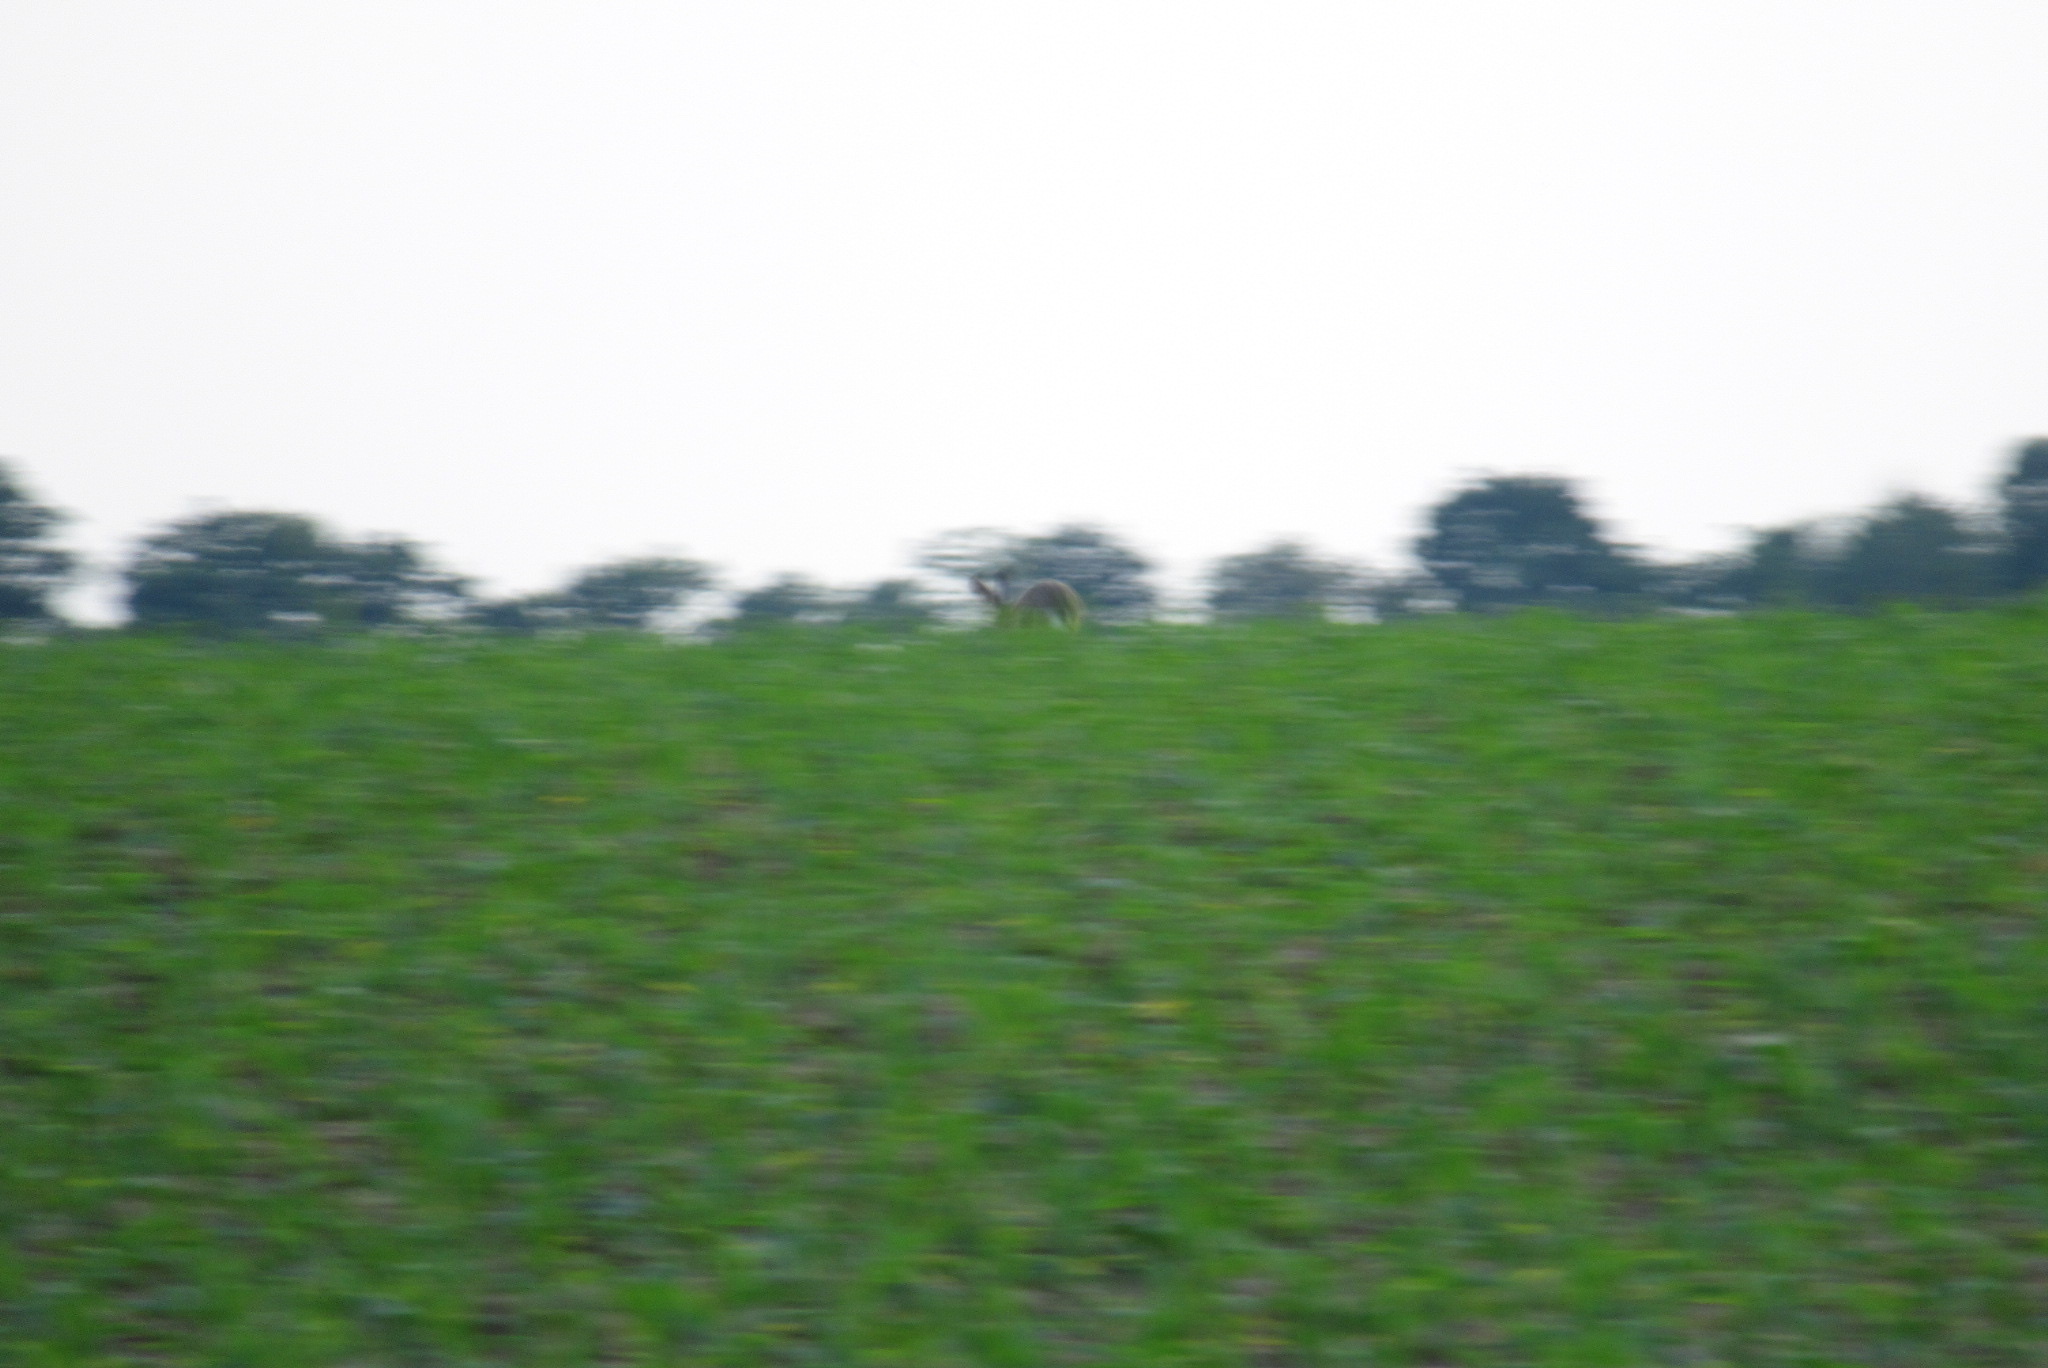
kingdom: Animalia
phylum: Chordata
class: Mammalia
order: Lagomorpha
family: Leporidae
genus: Lepus
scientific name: Lepus europaeus
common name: European hare
